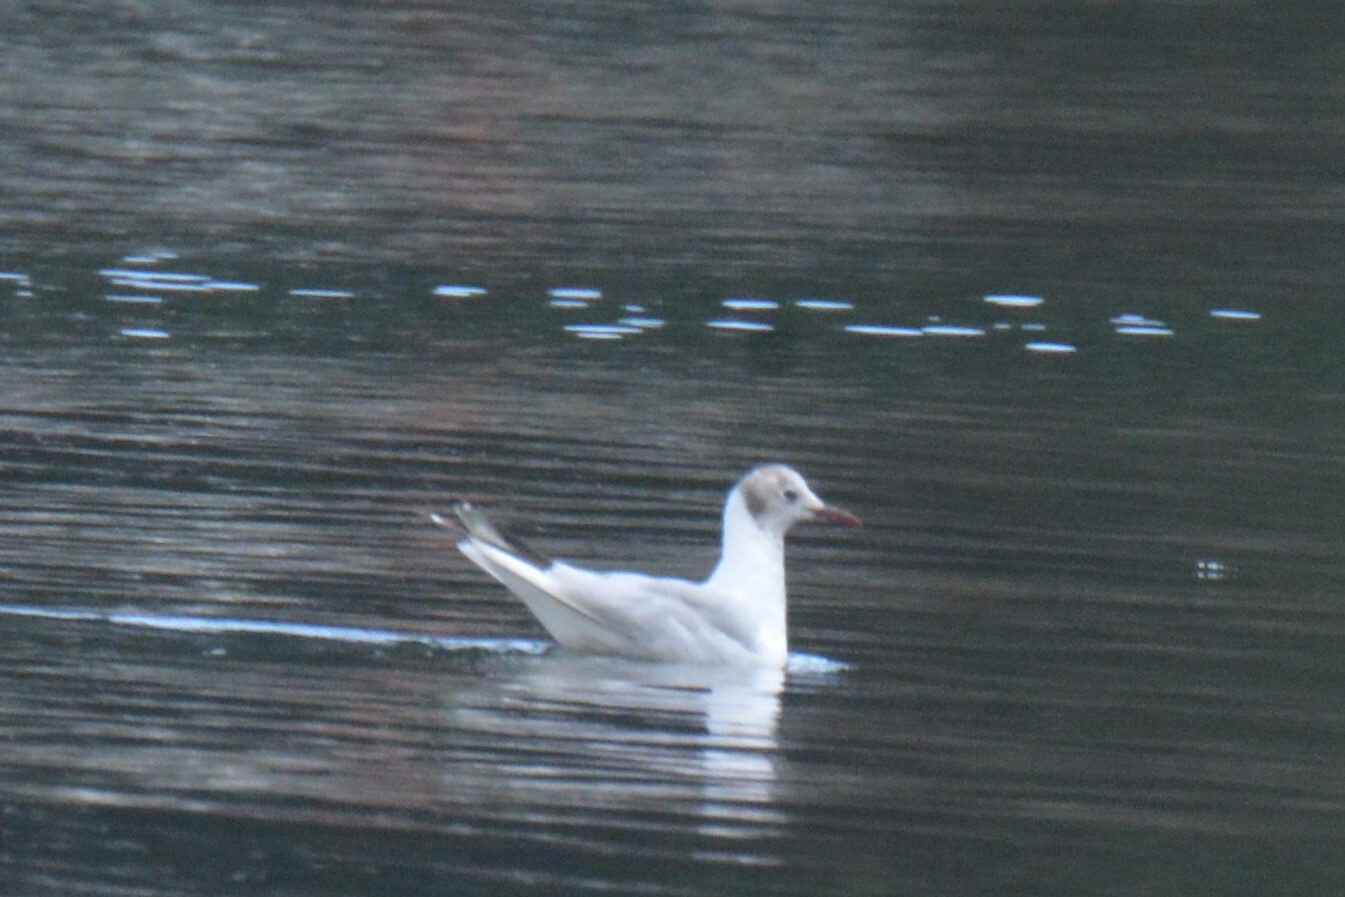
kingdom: Animalia
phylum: Chordata
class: Aves
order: Charadriiformes
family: Laridae
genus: Chroicocephalus
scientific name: Chroicocephalus ridibundus
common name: Black-headed gull
